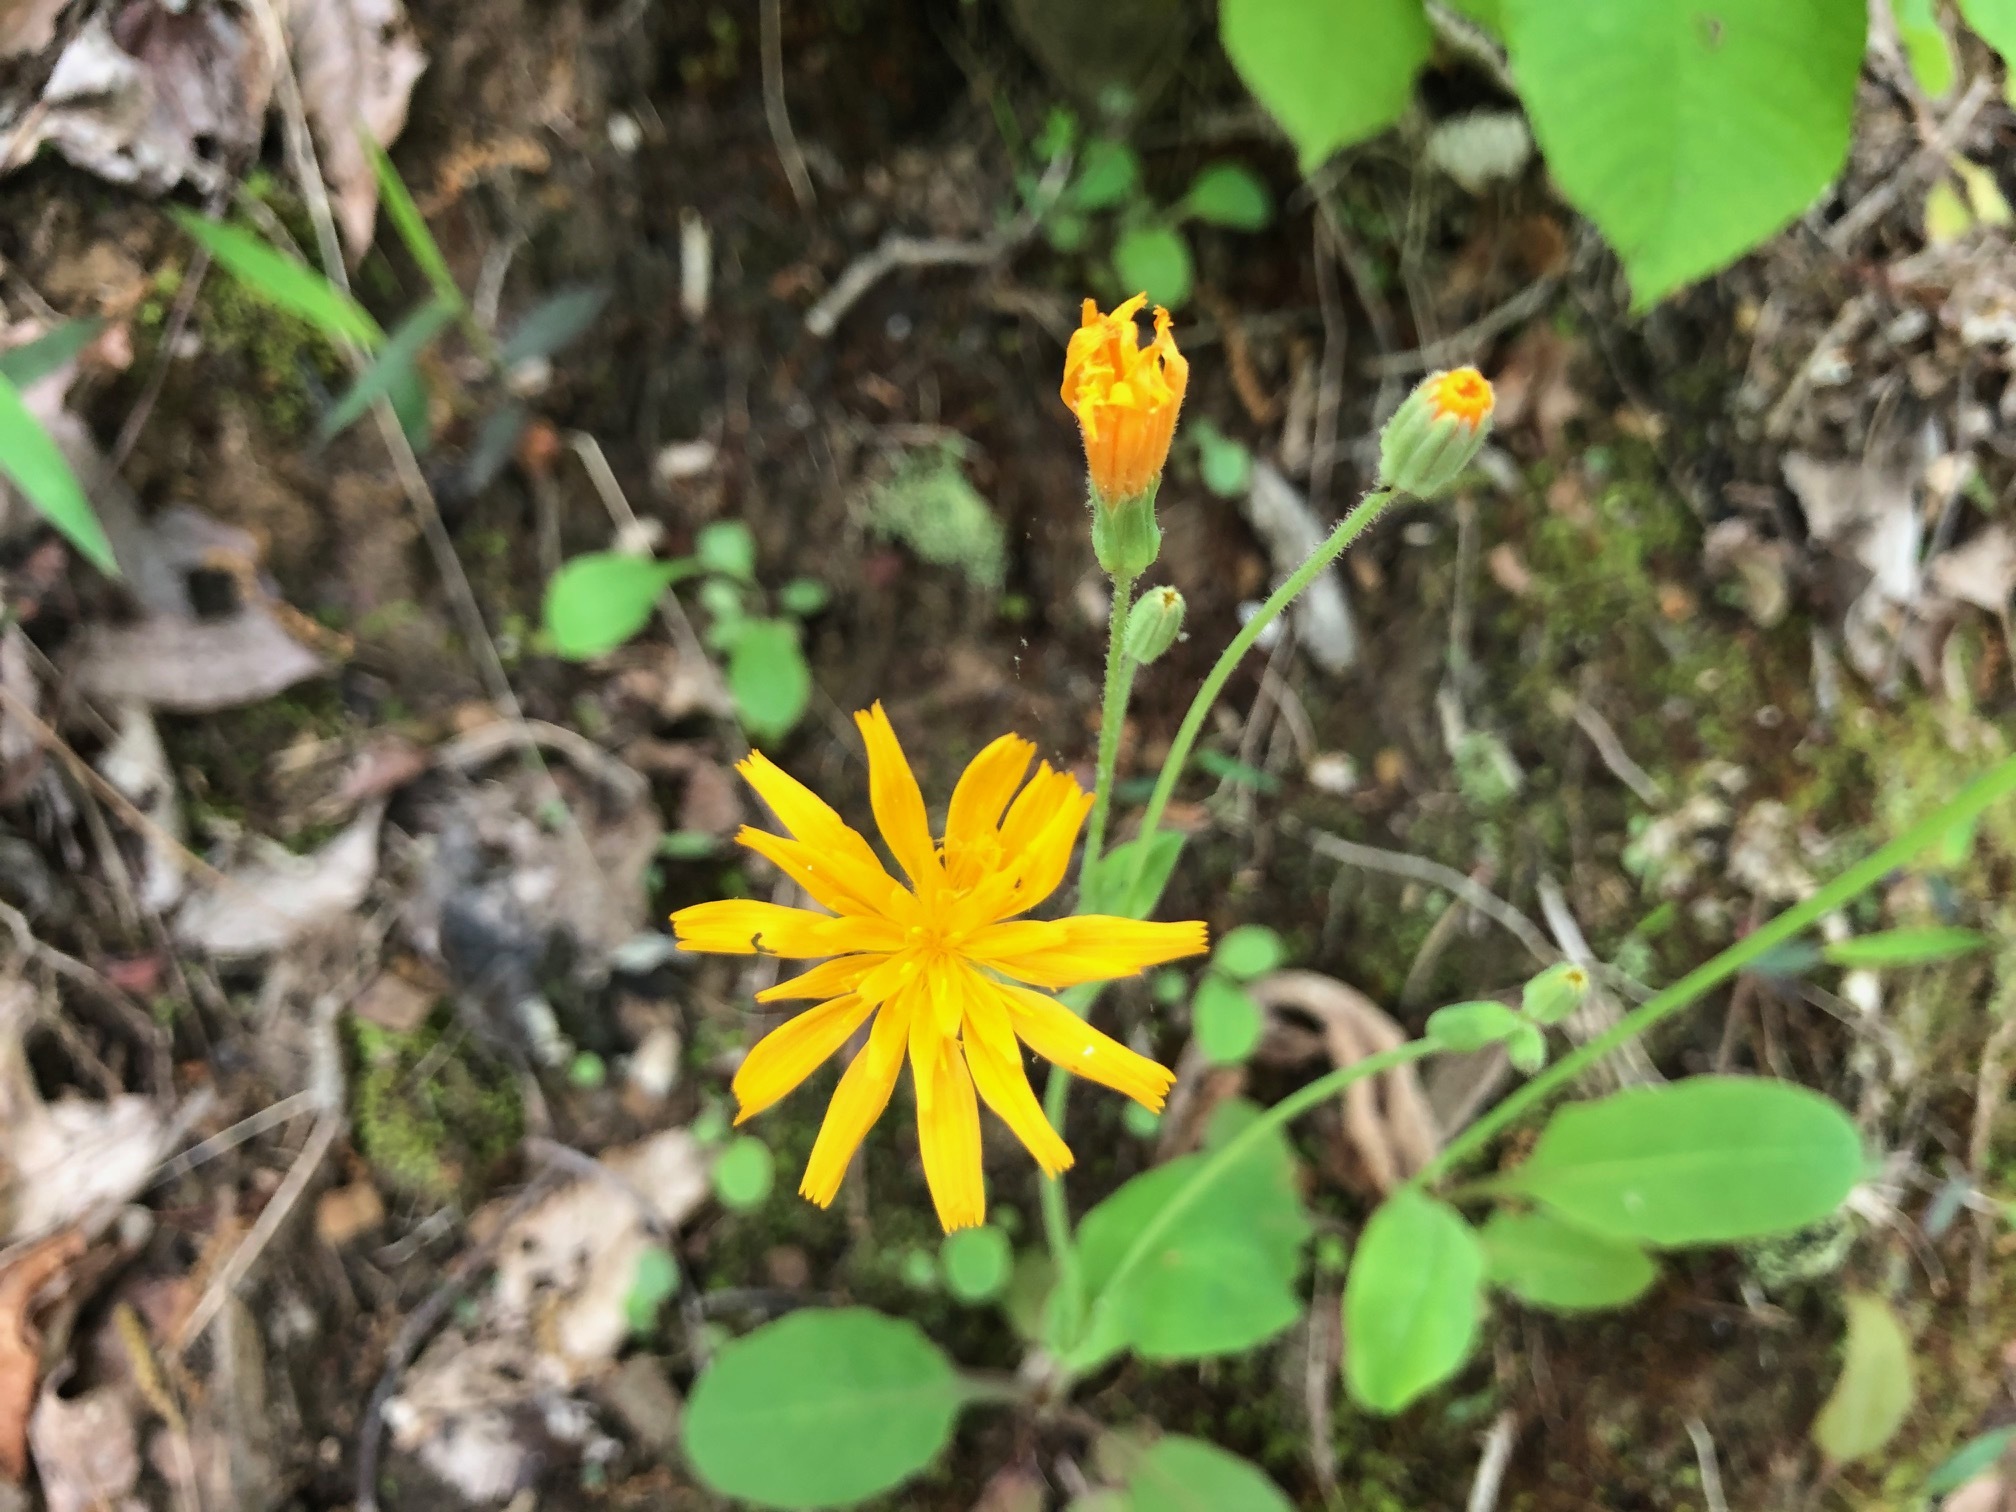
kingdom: Plantae
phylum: Tracheophyta
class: Magnoliopsida
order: Asterales
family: Asteraceae
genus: Krigia
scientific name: Krigia biflora
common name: Orange dwarf-dandelion
